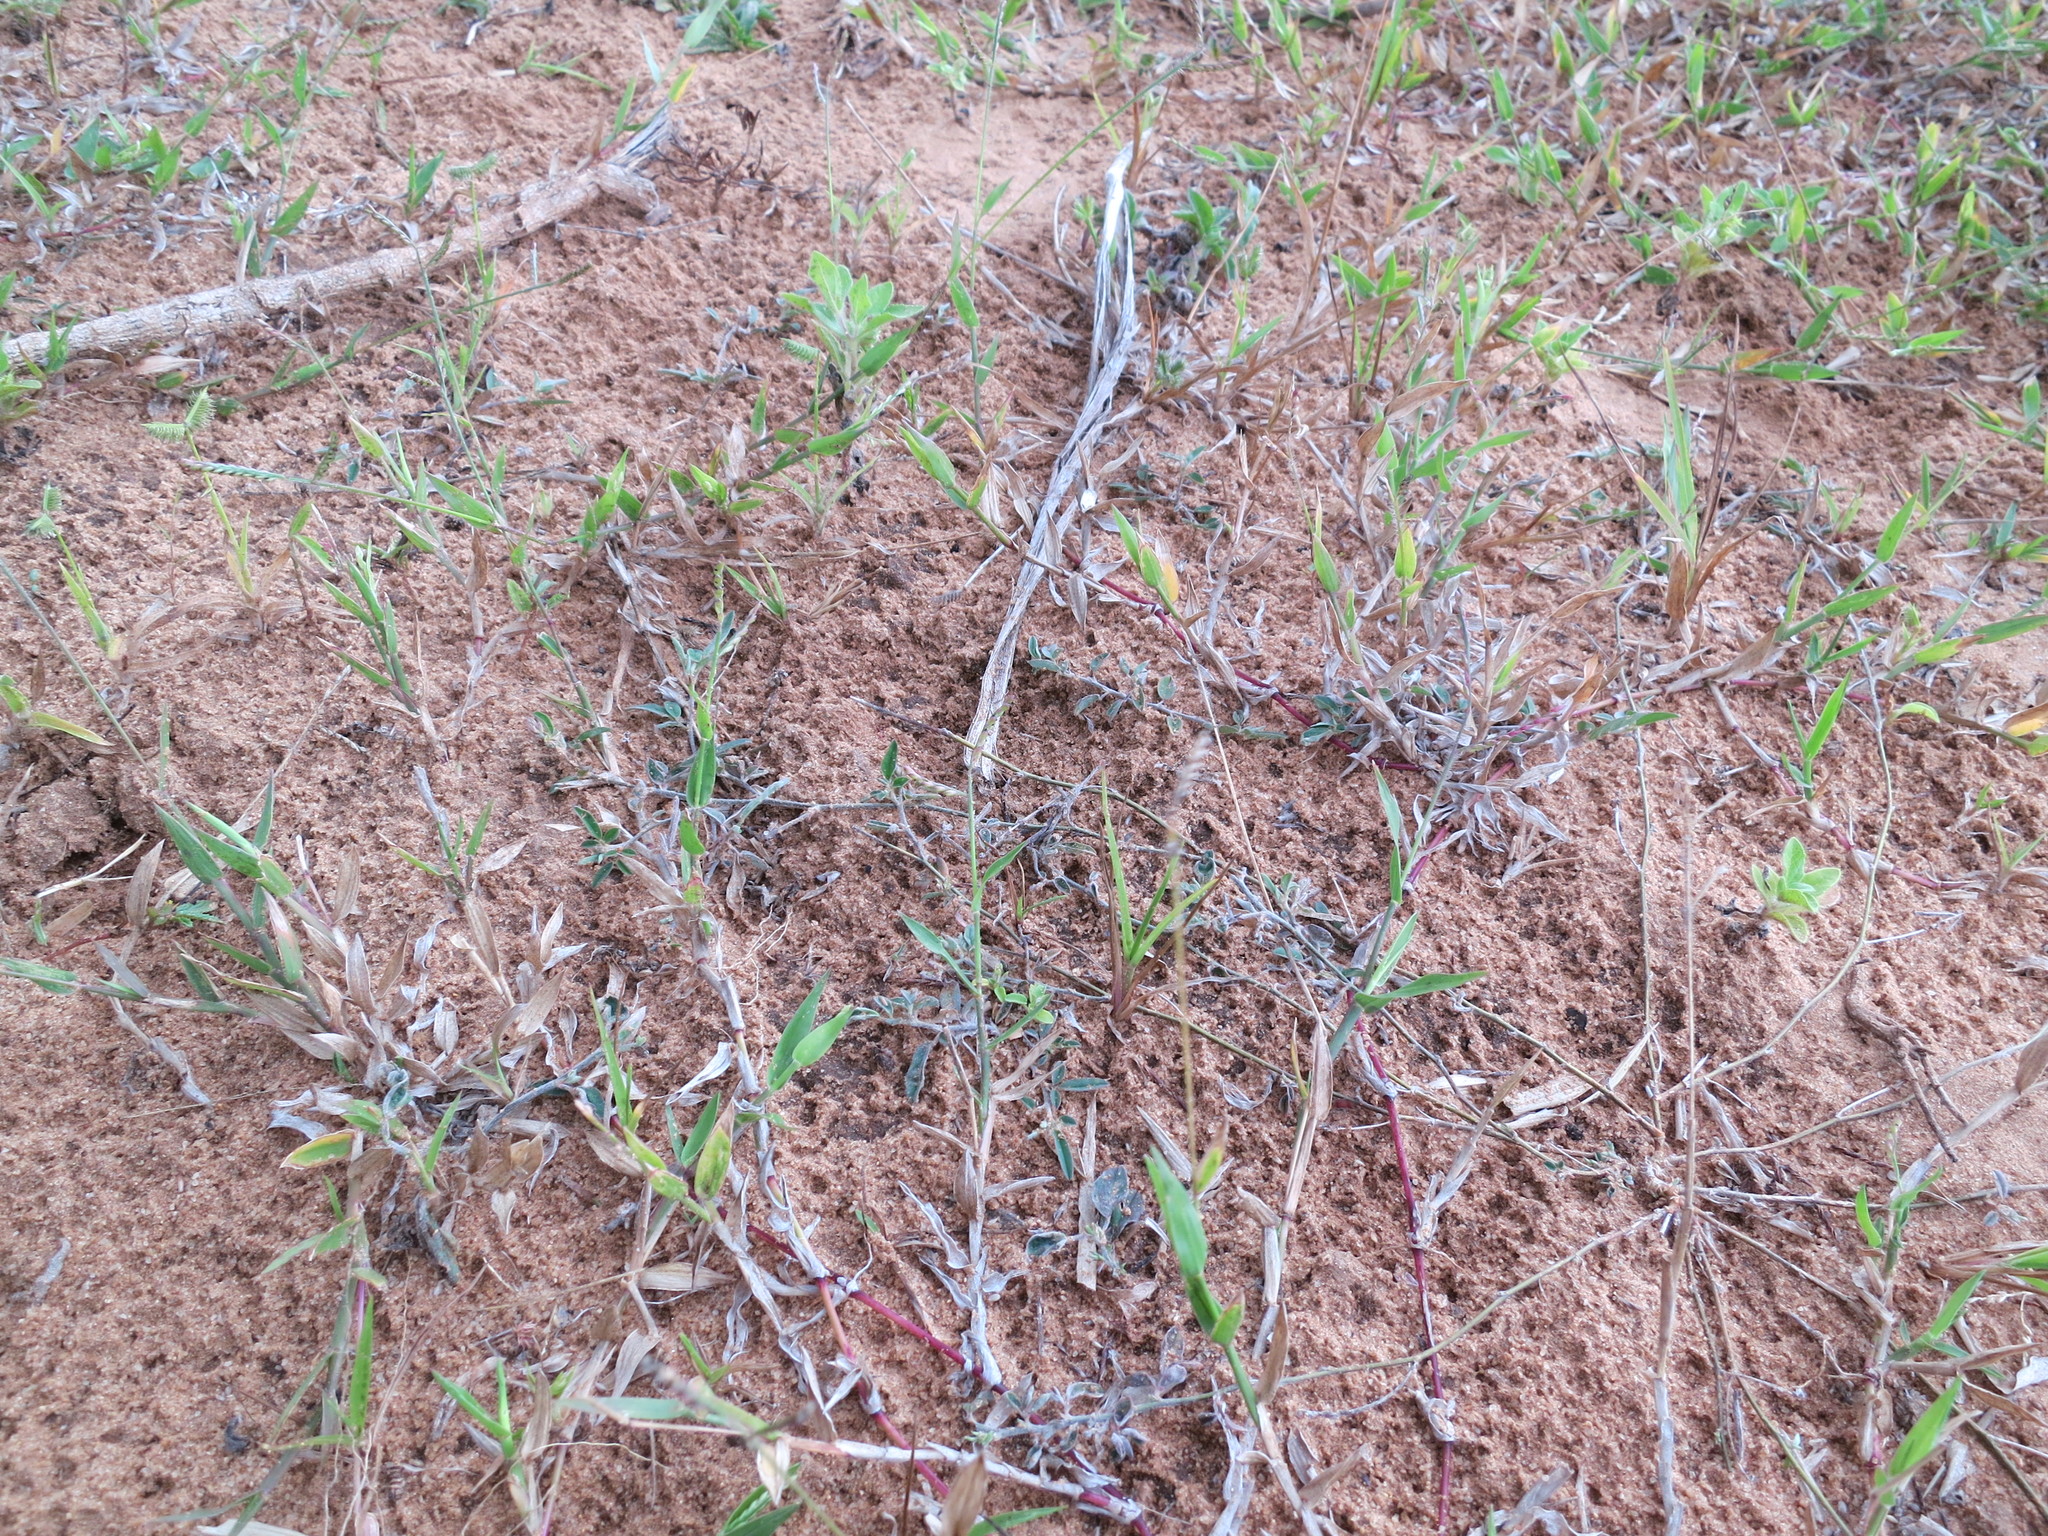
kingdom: Plantae
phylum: Tracheophyta
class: Liliopsida
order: Poales
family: Poaceae
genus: Urochloa
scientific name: Urochloa distachyos
